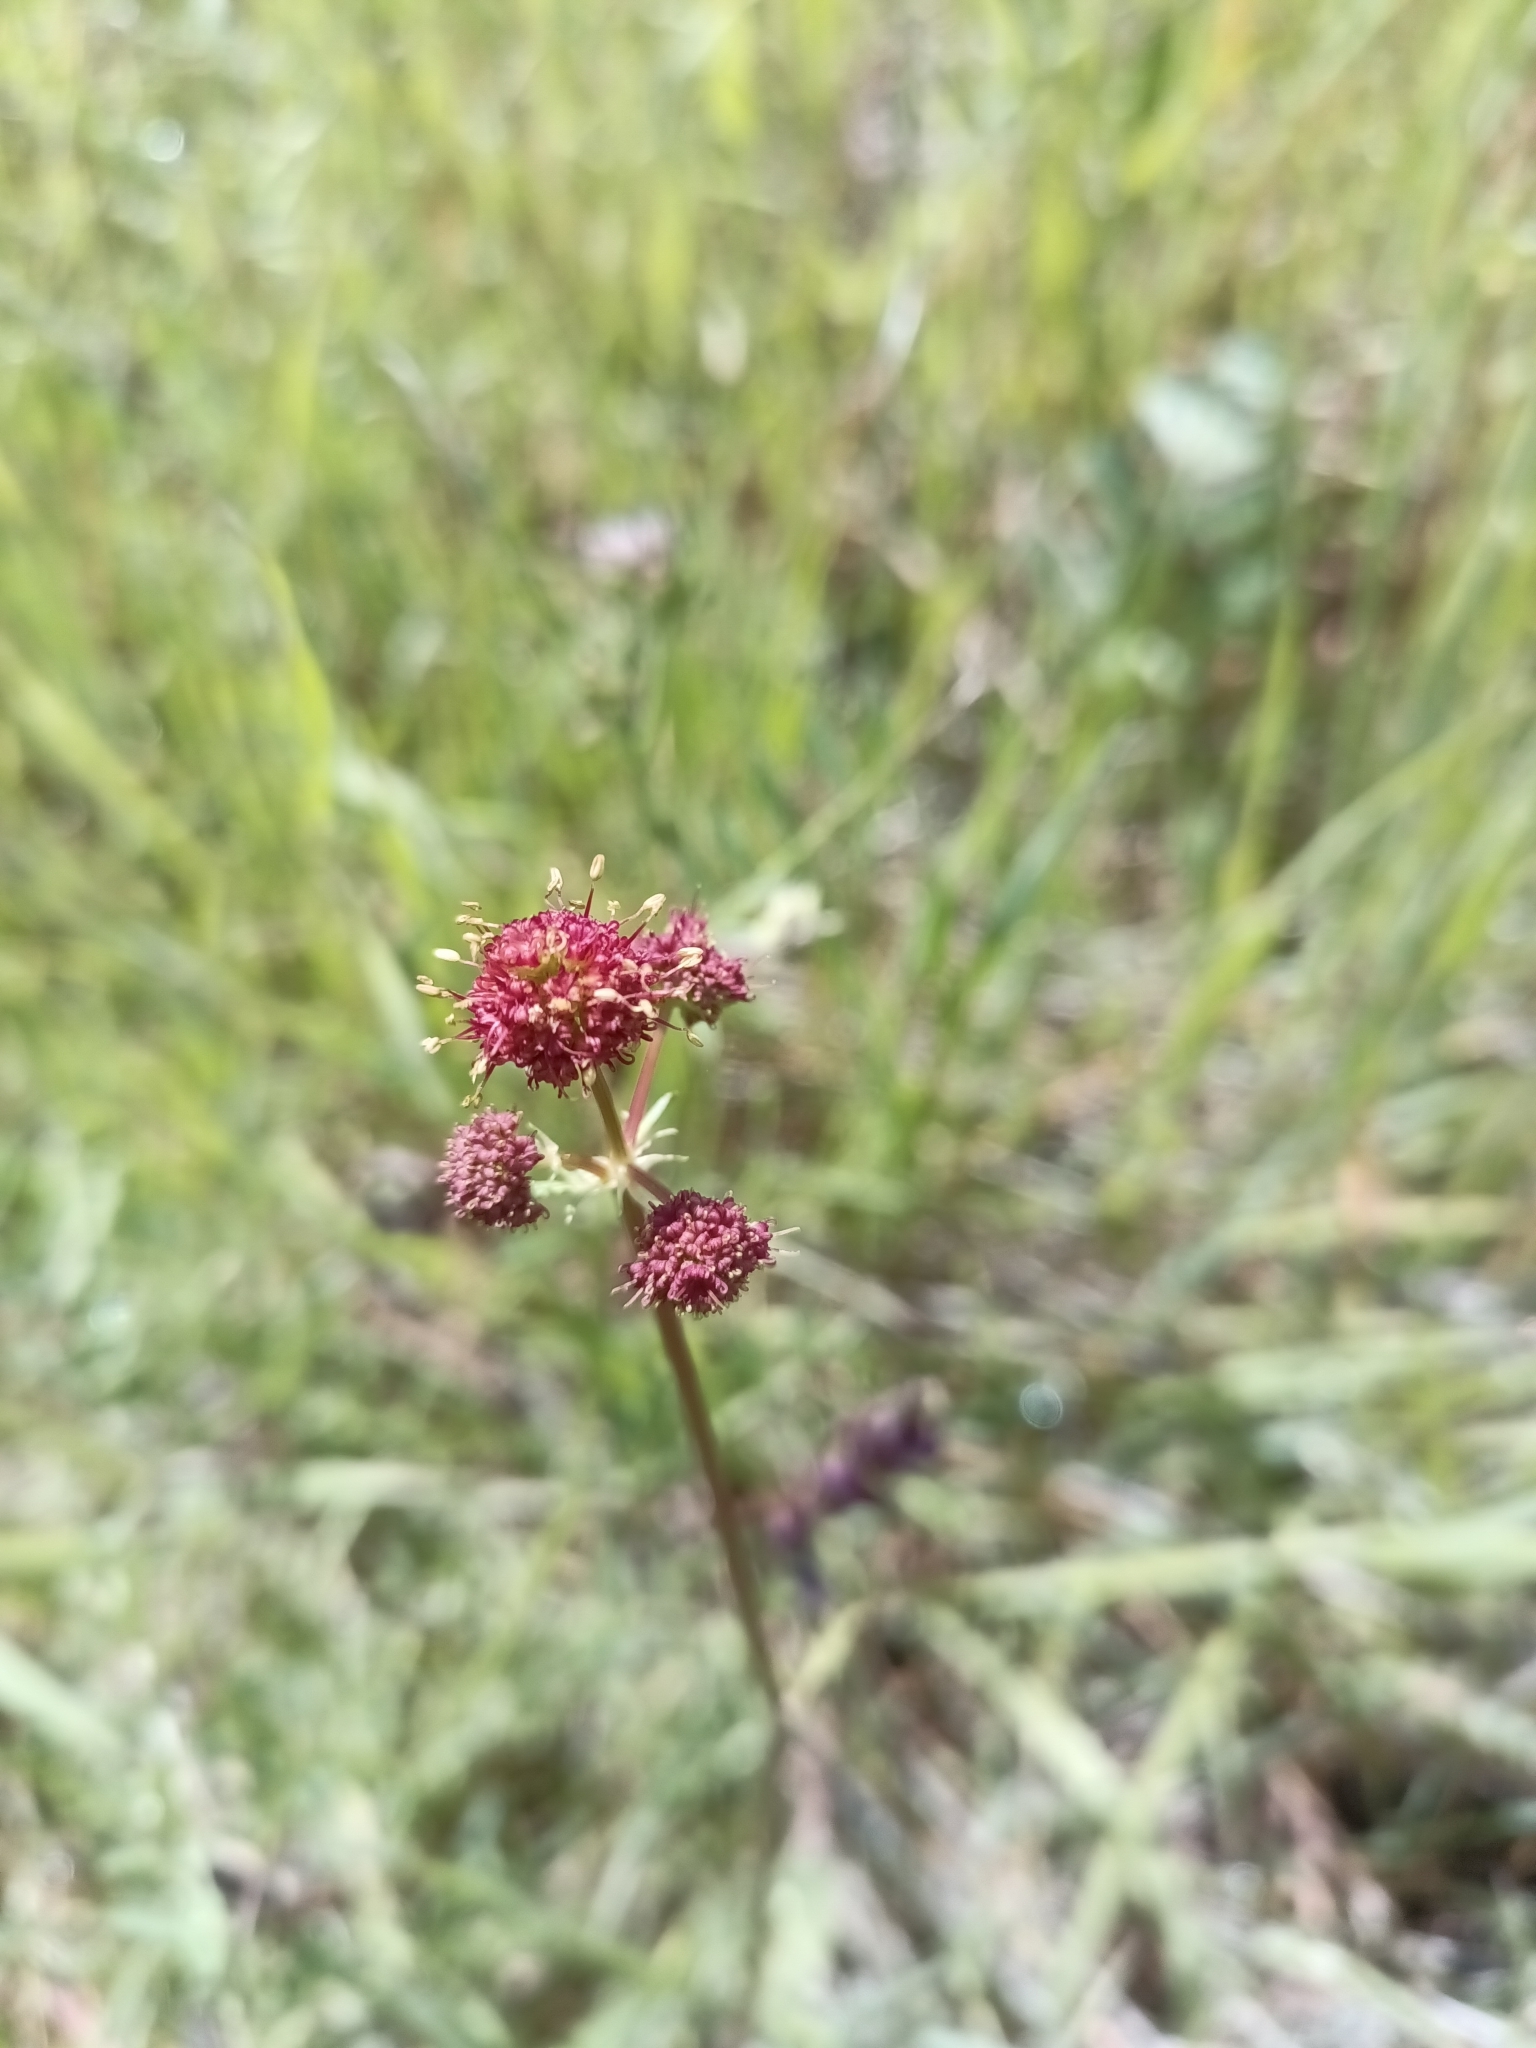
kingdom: Plantae
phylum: Tracheophyta
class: Magnoliopsida
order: Apiales
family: Apiaceae
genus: Sanicula
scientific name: Sanicula bipinnatifida
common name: Shoe-buttons
